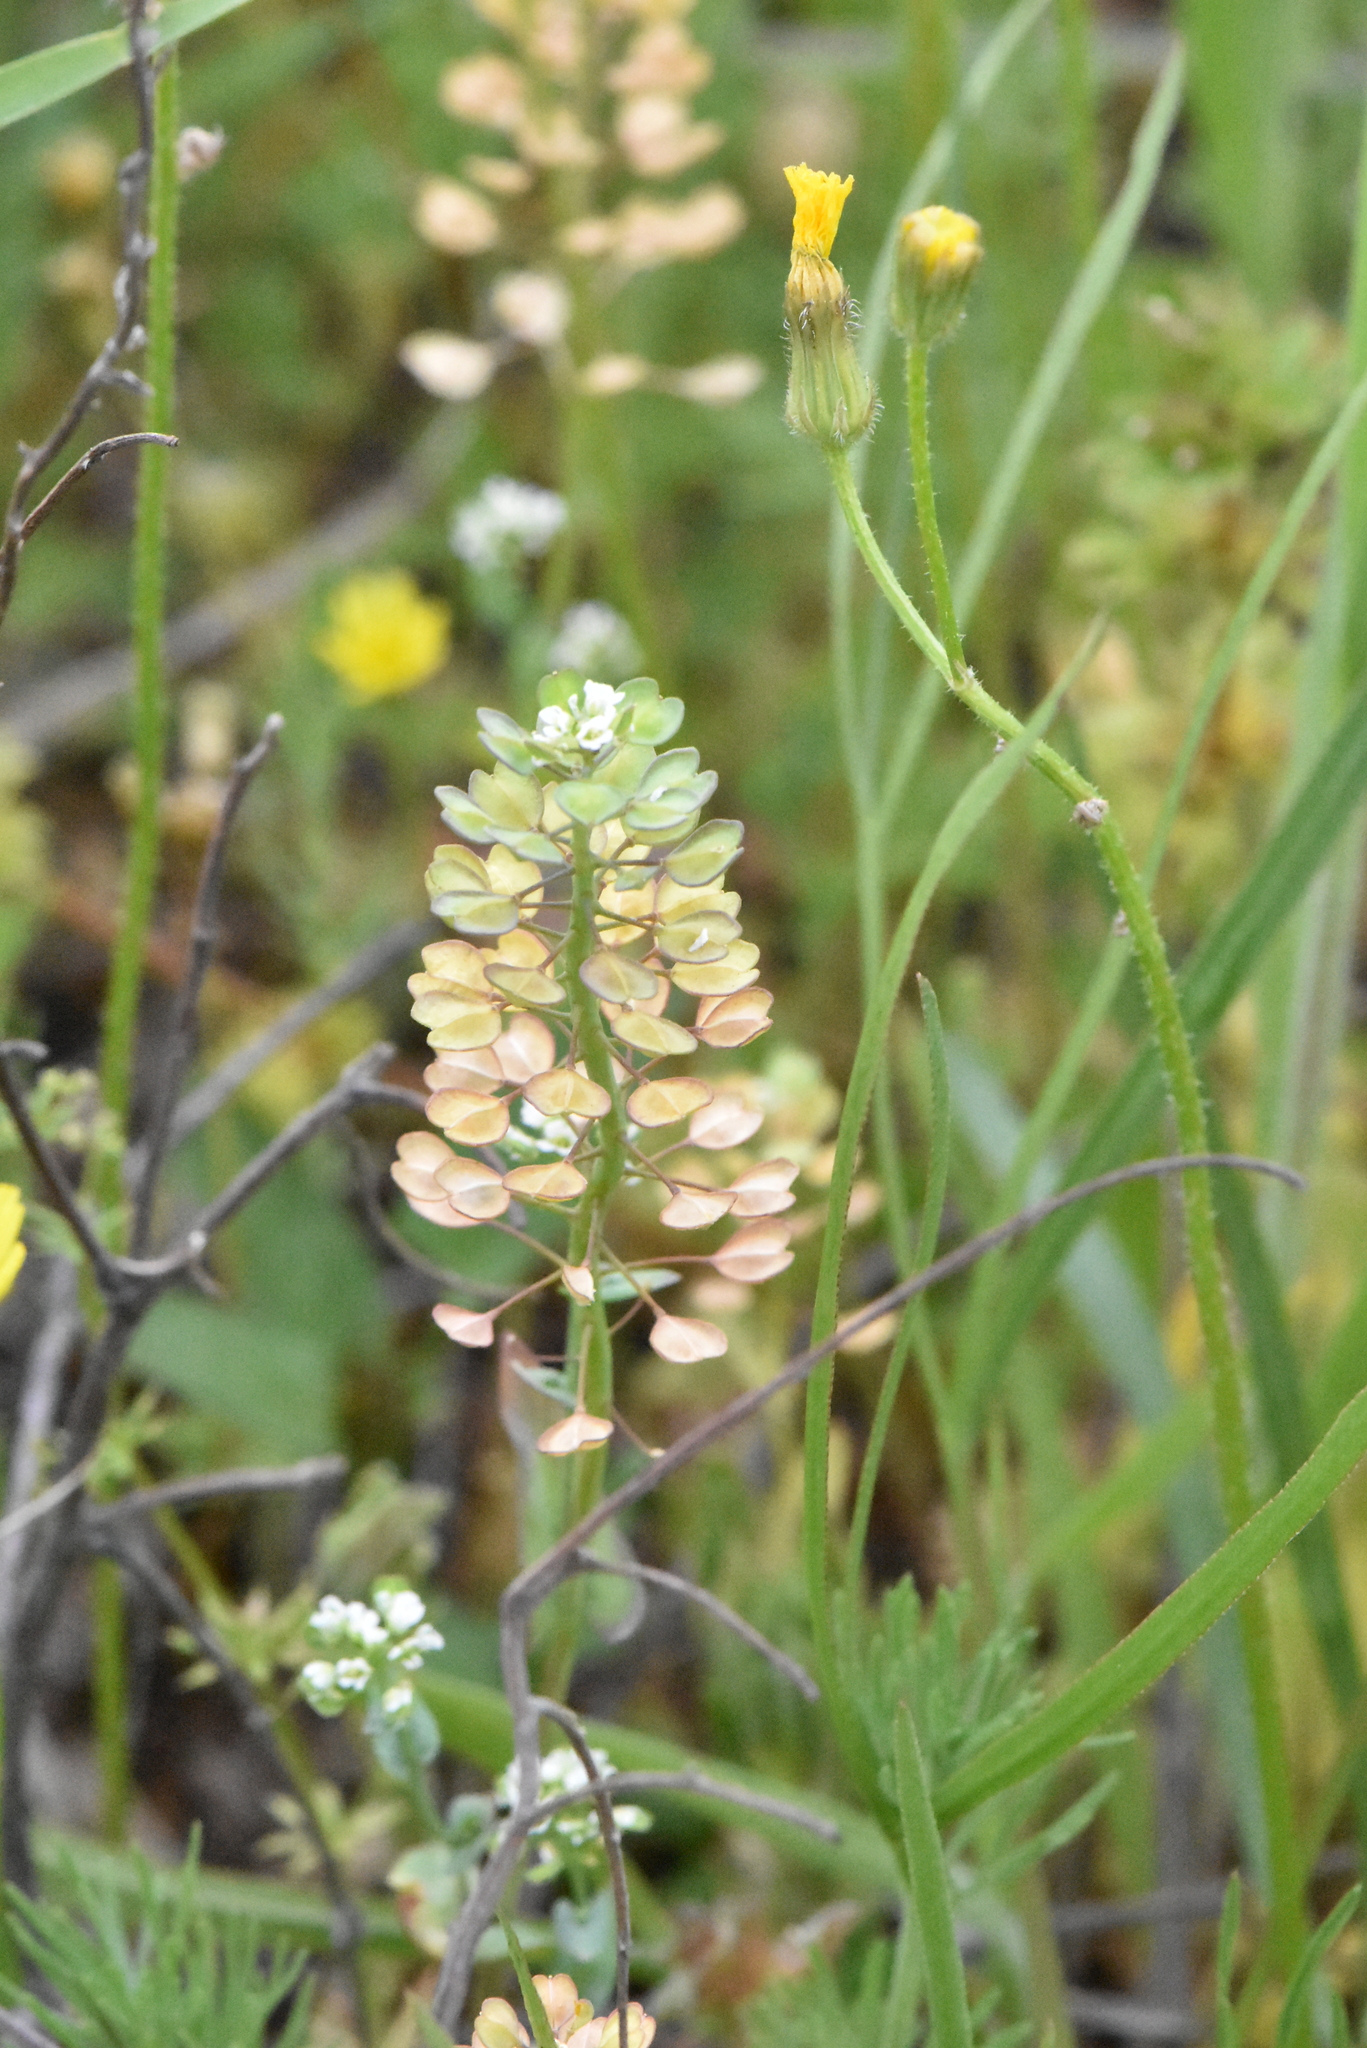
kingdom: Plantae
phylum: Tracheophyta
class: Magnoliopsida
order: Brassicales
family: Brassicaceae
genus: Noccaea
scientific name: Noccaea perfoliata
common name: Perfoliate pennycress
